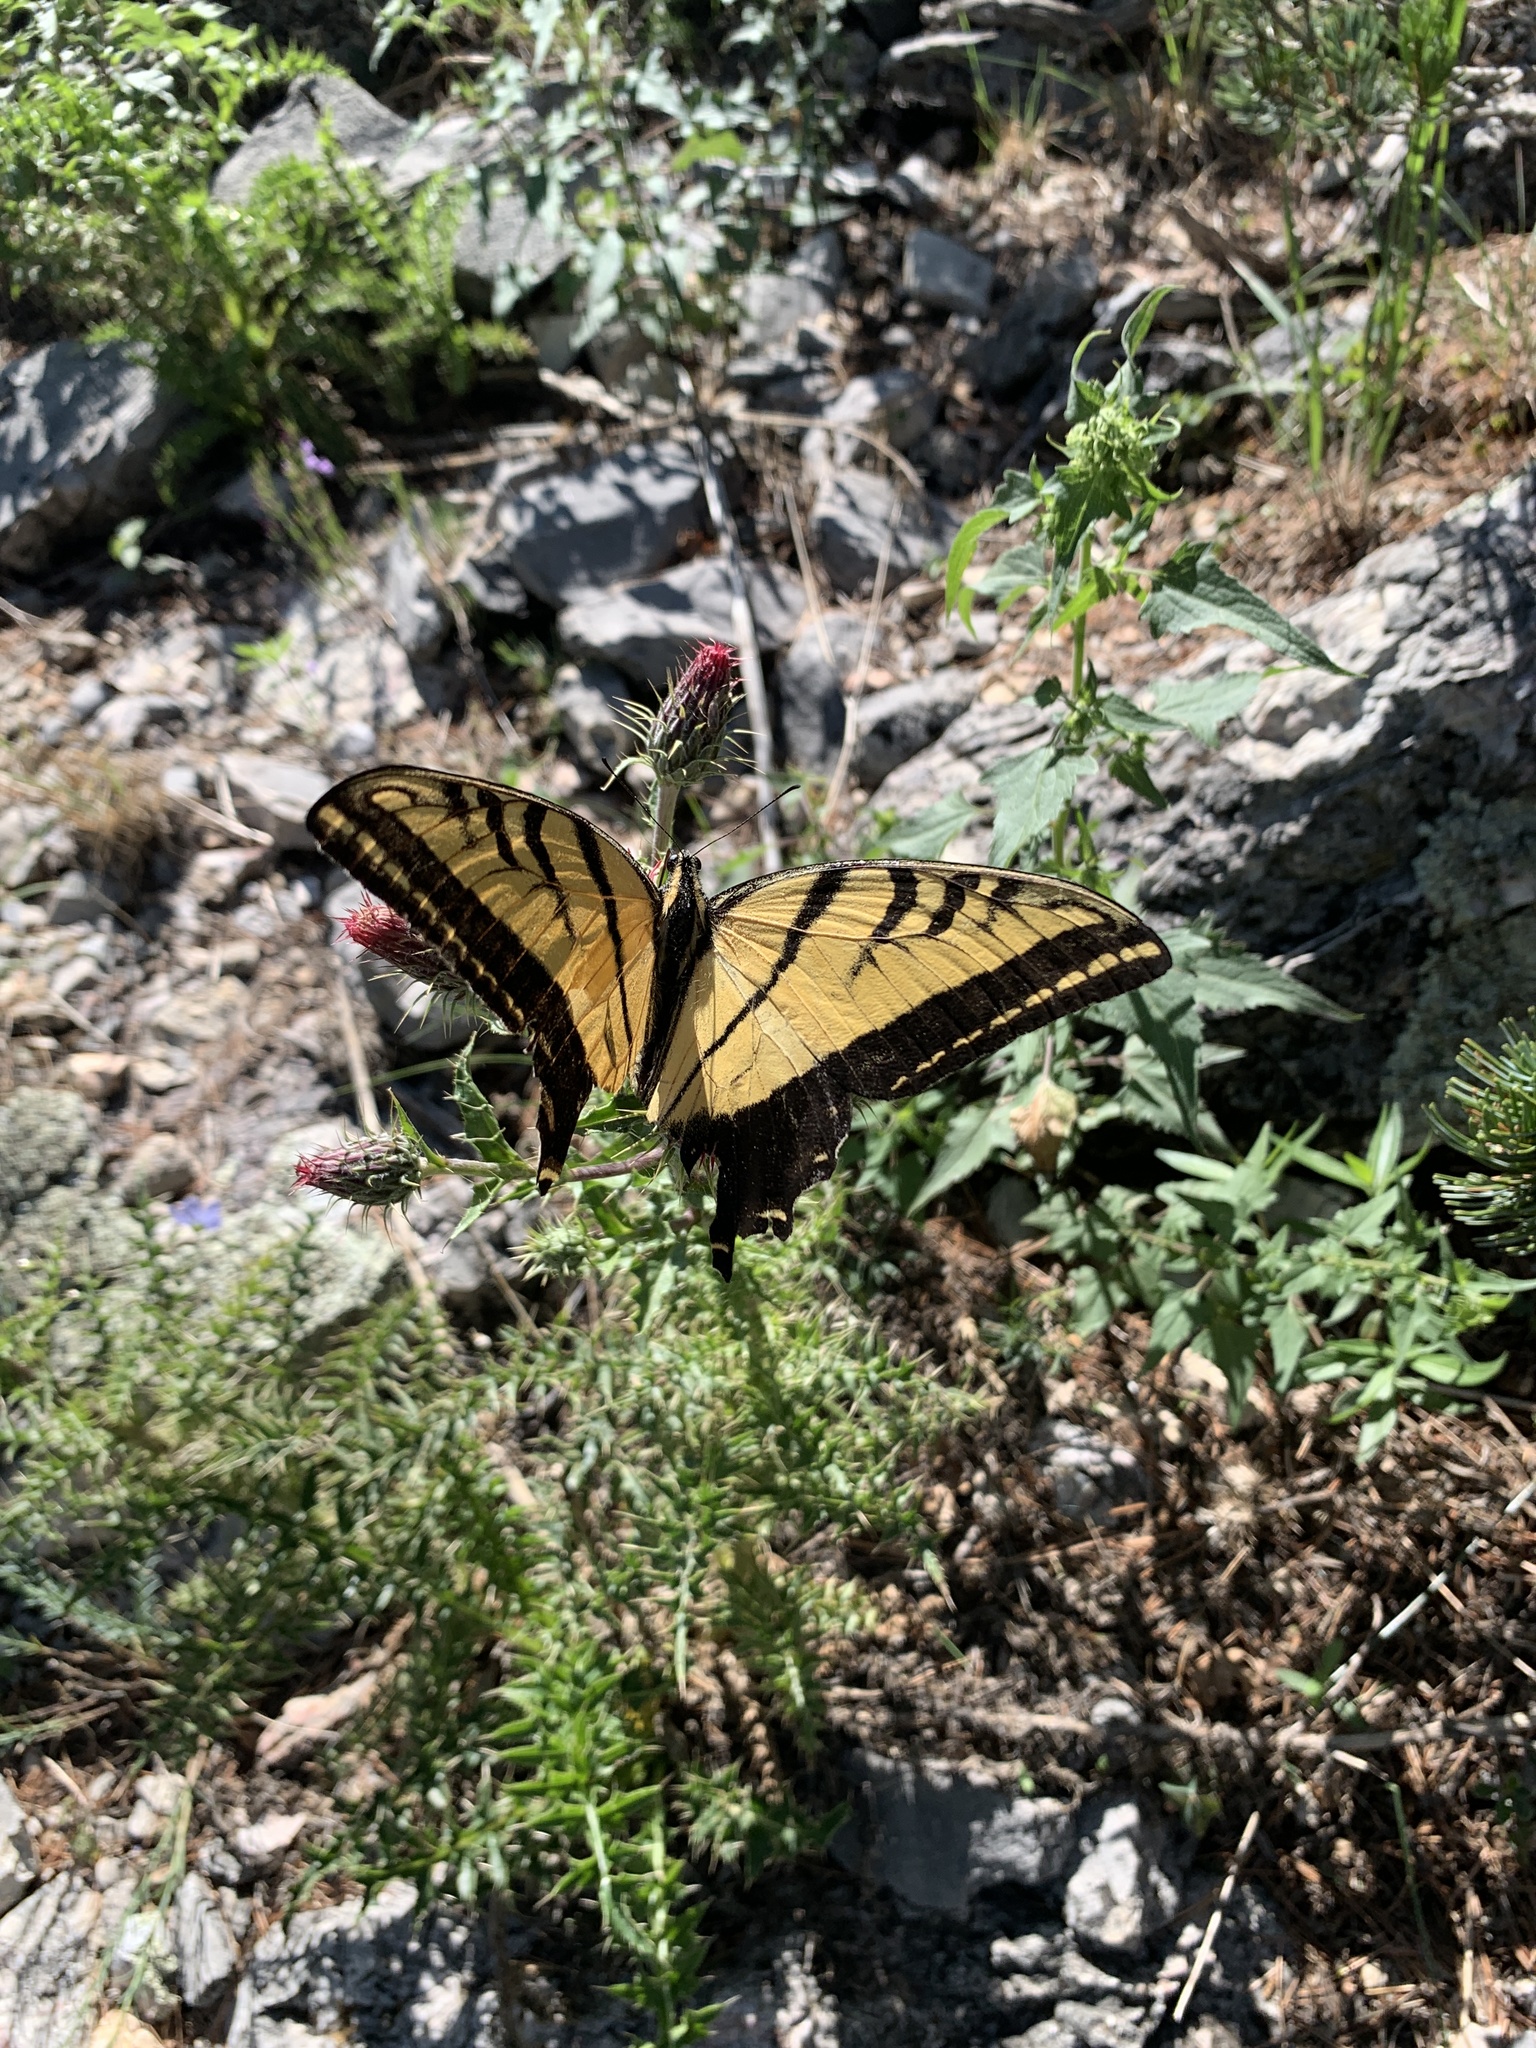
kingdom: Animalia
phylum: Arthropoda
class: Insecta
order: Lepidoptera
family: Papilionidae
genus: Papilio
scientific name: Papilio multicaudata
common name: Two-tailed tiger swallowtail
